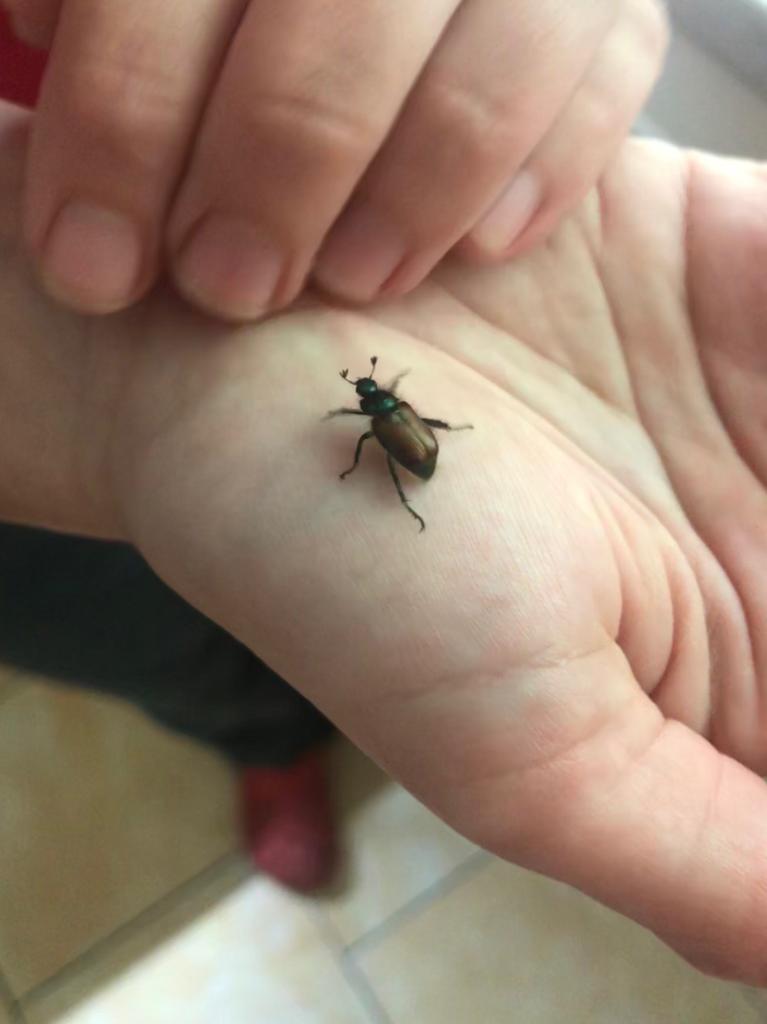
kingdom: Animalia
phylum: Arthropoda
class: Insecta
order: Coleoptera
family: Scarabaeidae
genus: Phyllopertha
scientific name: Phyllopertha horticola
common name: Garden chafer
